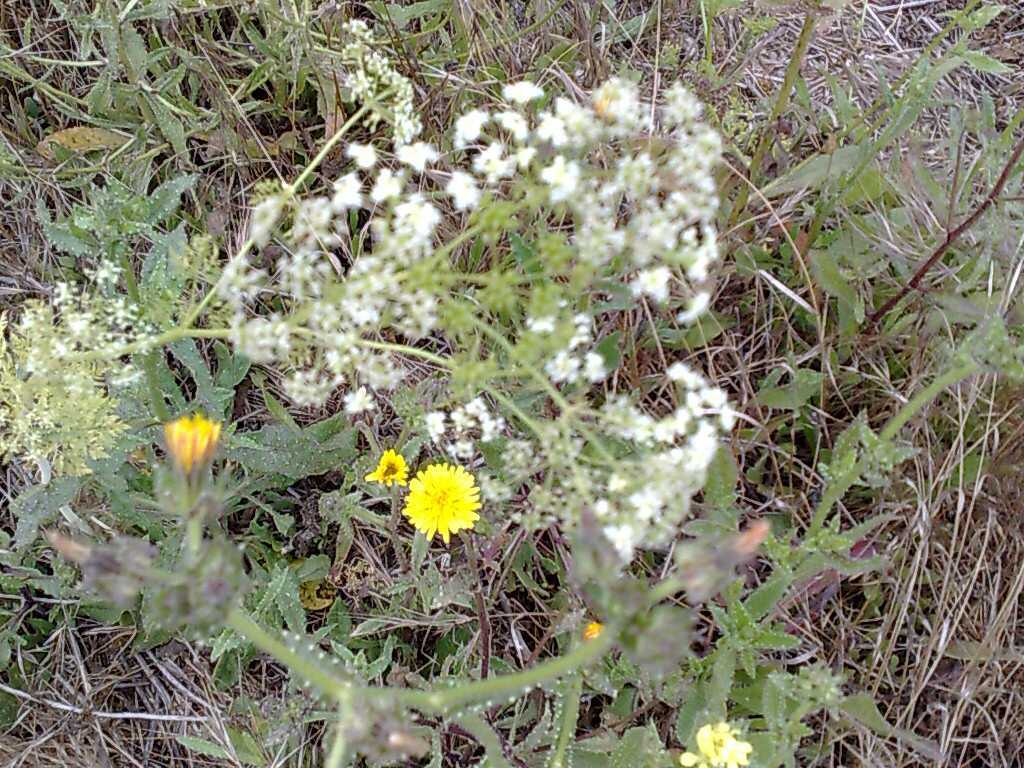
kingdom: Plantae
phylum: Tracheophyta
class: Magnoliopsida
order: Apiales
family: Apiaceae
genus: Conium
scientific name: Conium maculatum
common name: Hemlock
